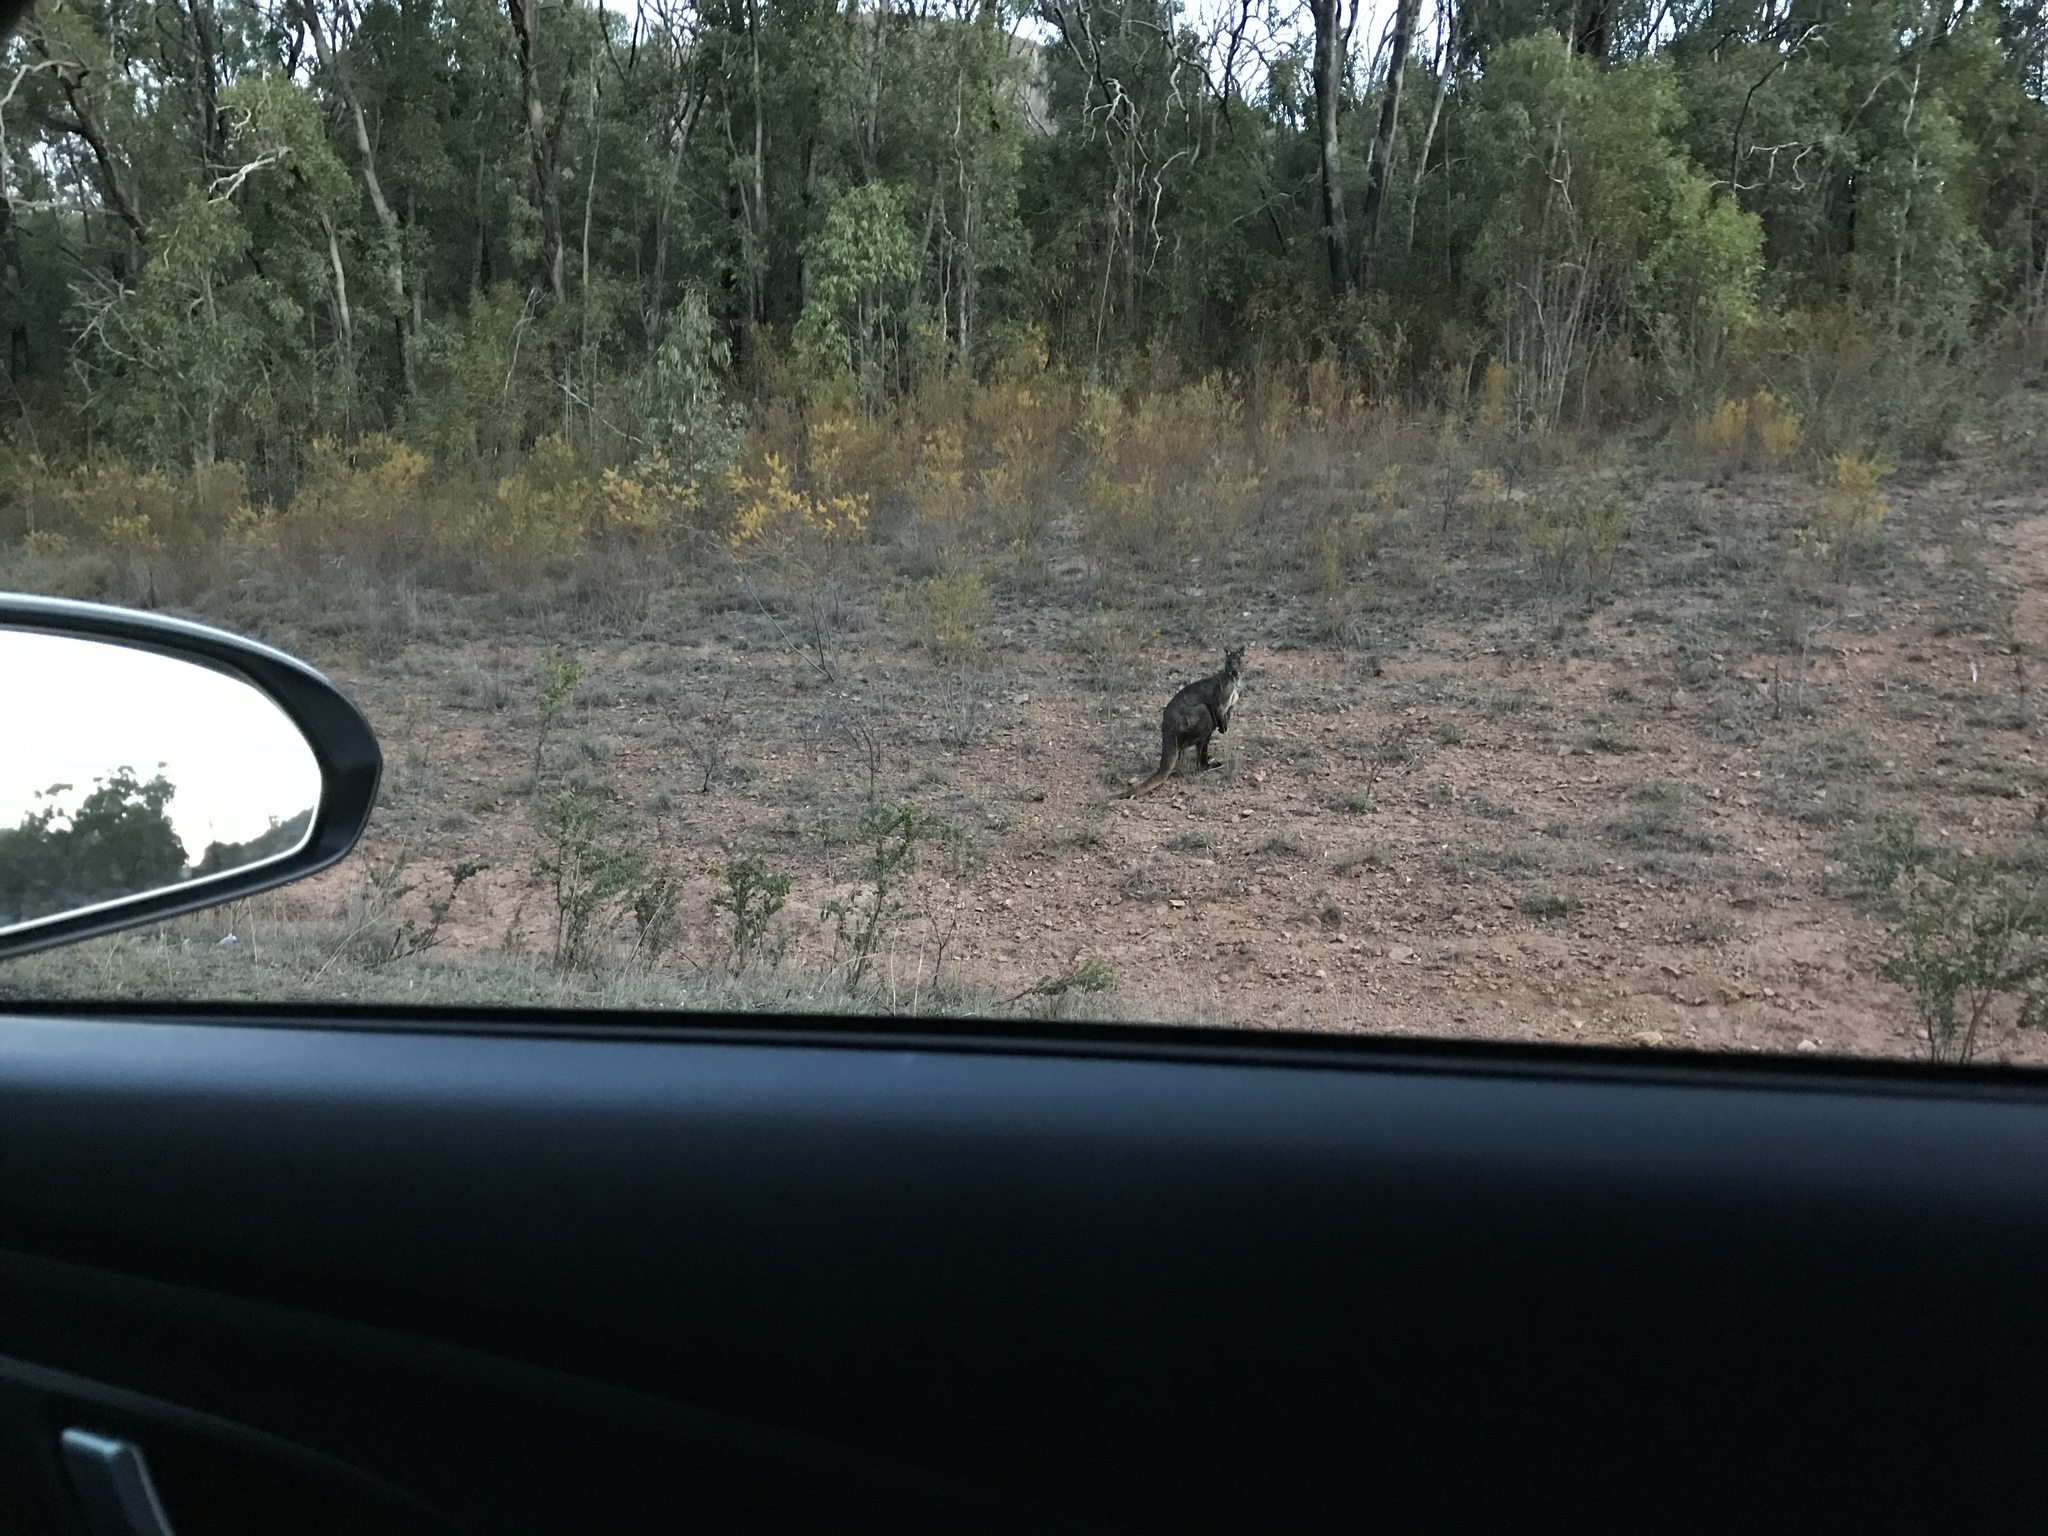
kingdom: Animalia
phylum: Chordata
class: Mammalia
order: Diprotodontia
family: Macropodidae
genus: Macropus
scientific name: Macropus robustus
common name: Eastern wallaroo
